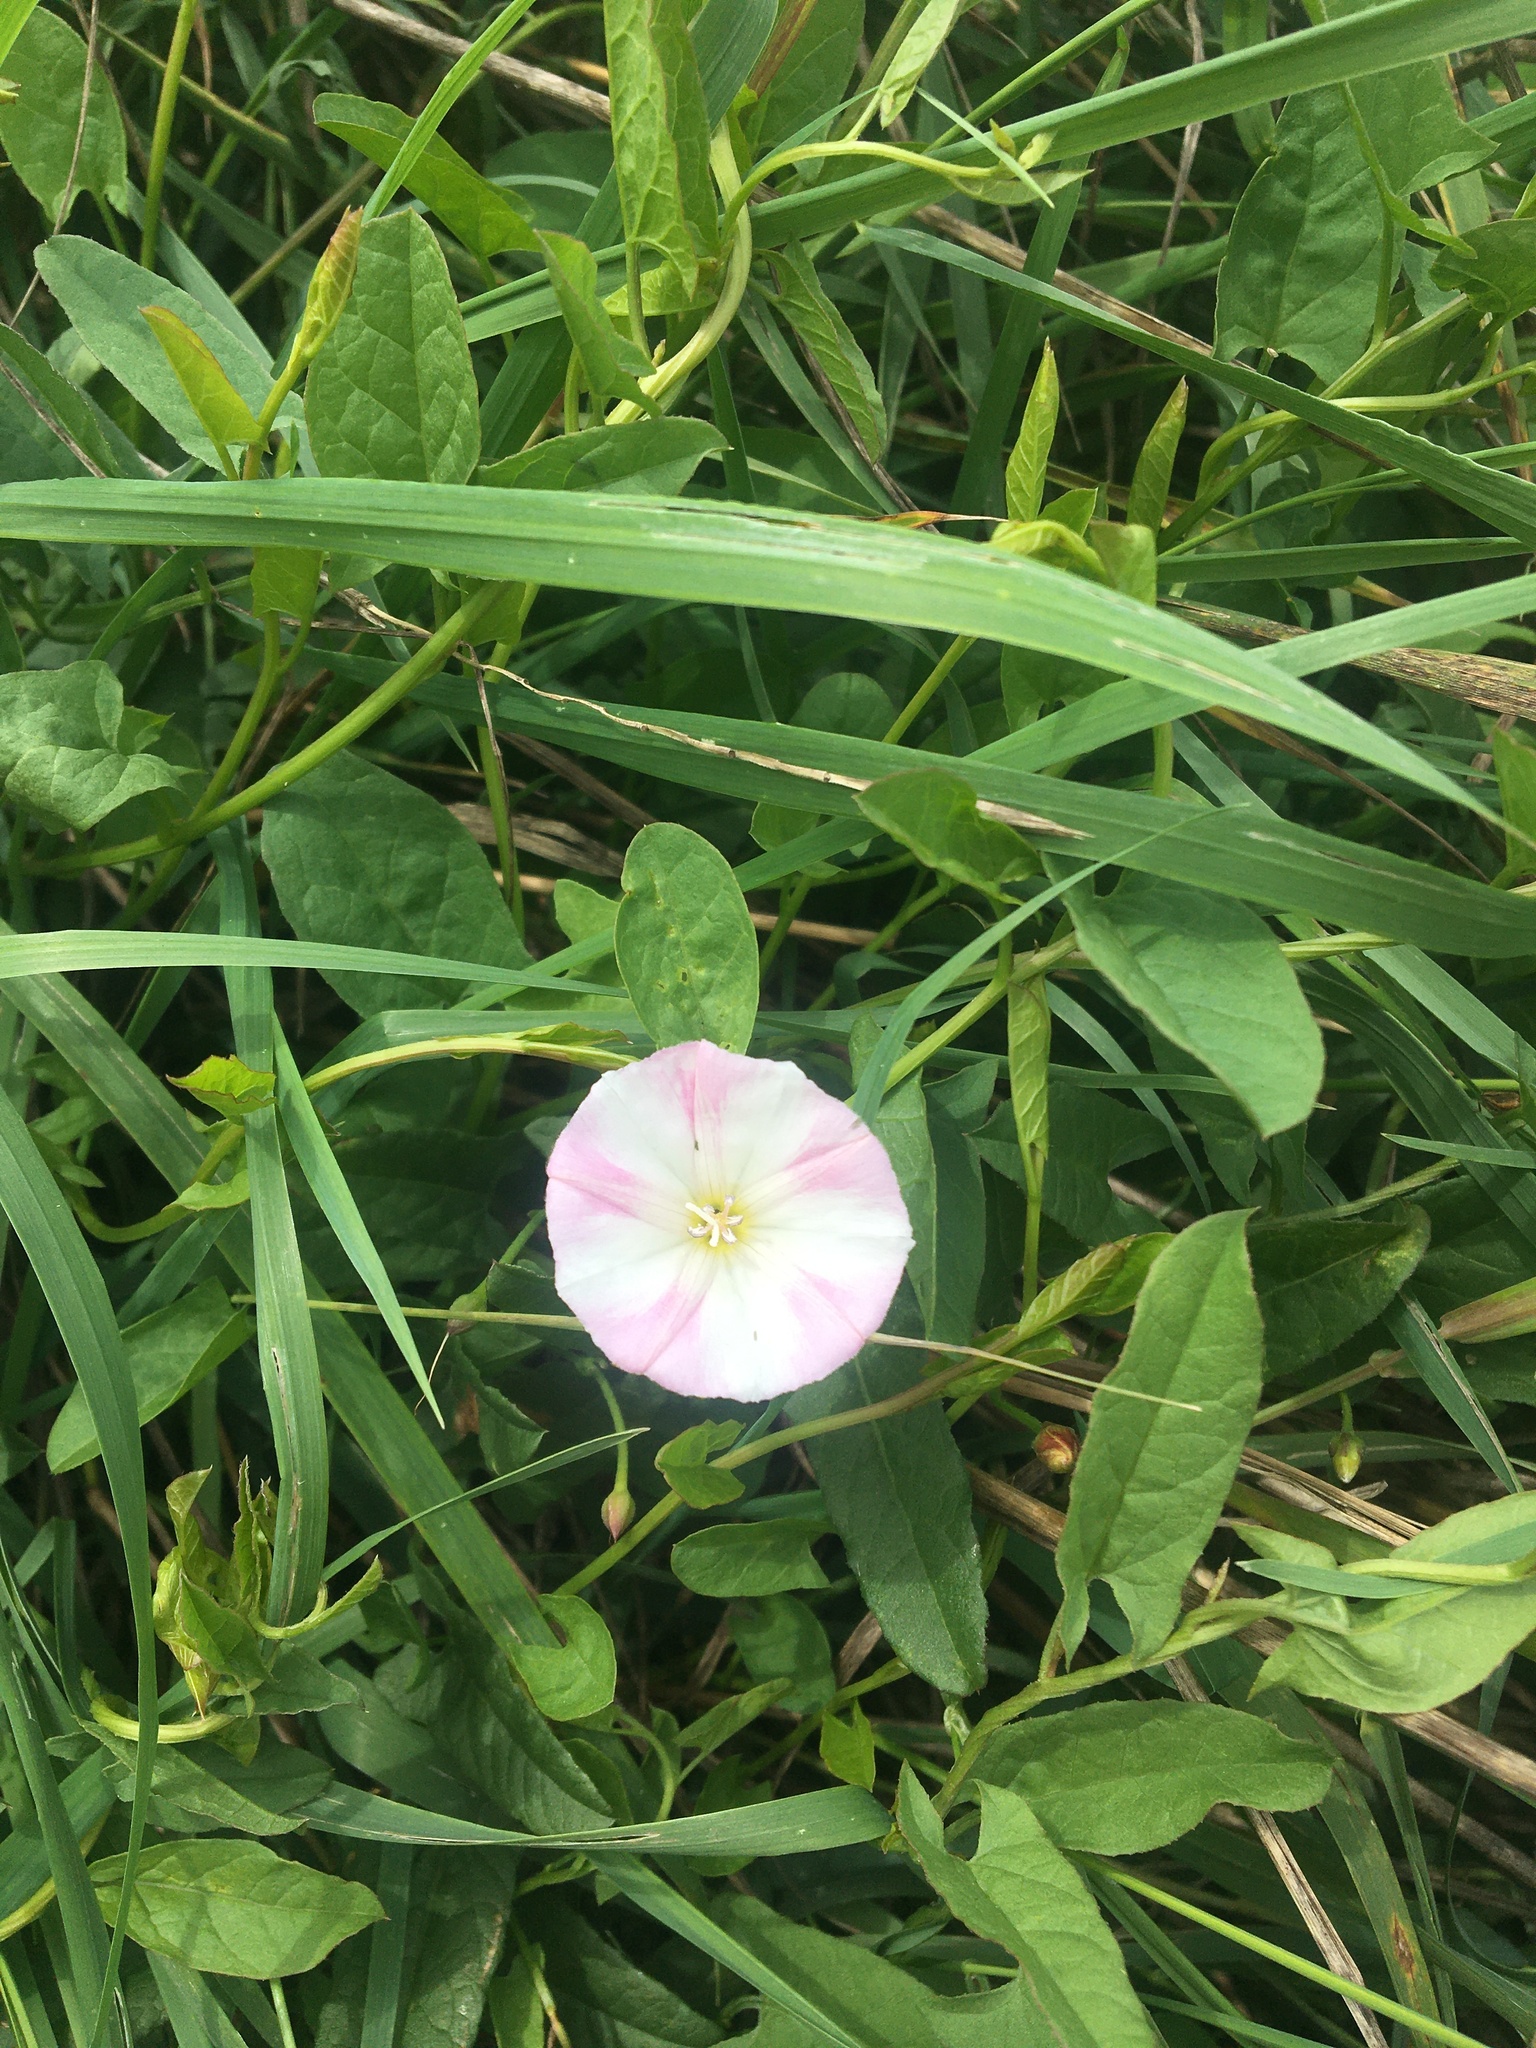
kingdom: Plantae
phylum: Tracheophyta
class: Magnoliopsida
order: Solanales
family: Convolvulaceae
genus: Convolvulus
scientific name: Convolvulus arvensis
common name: Field bindweed
